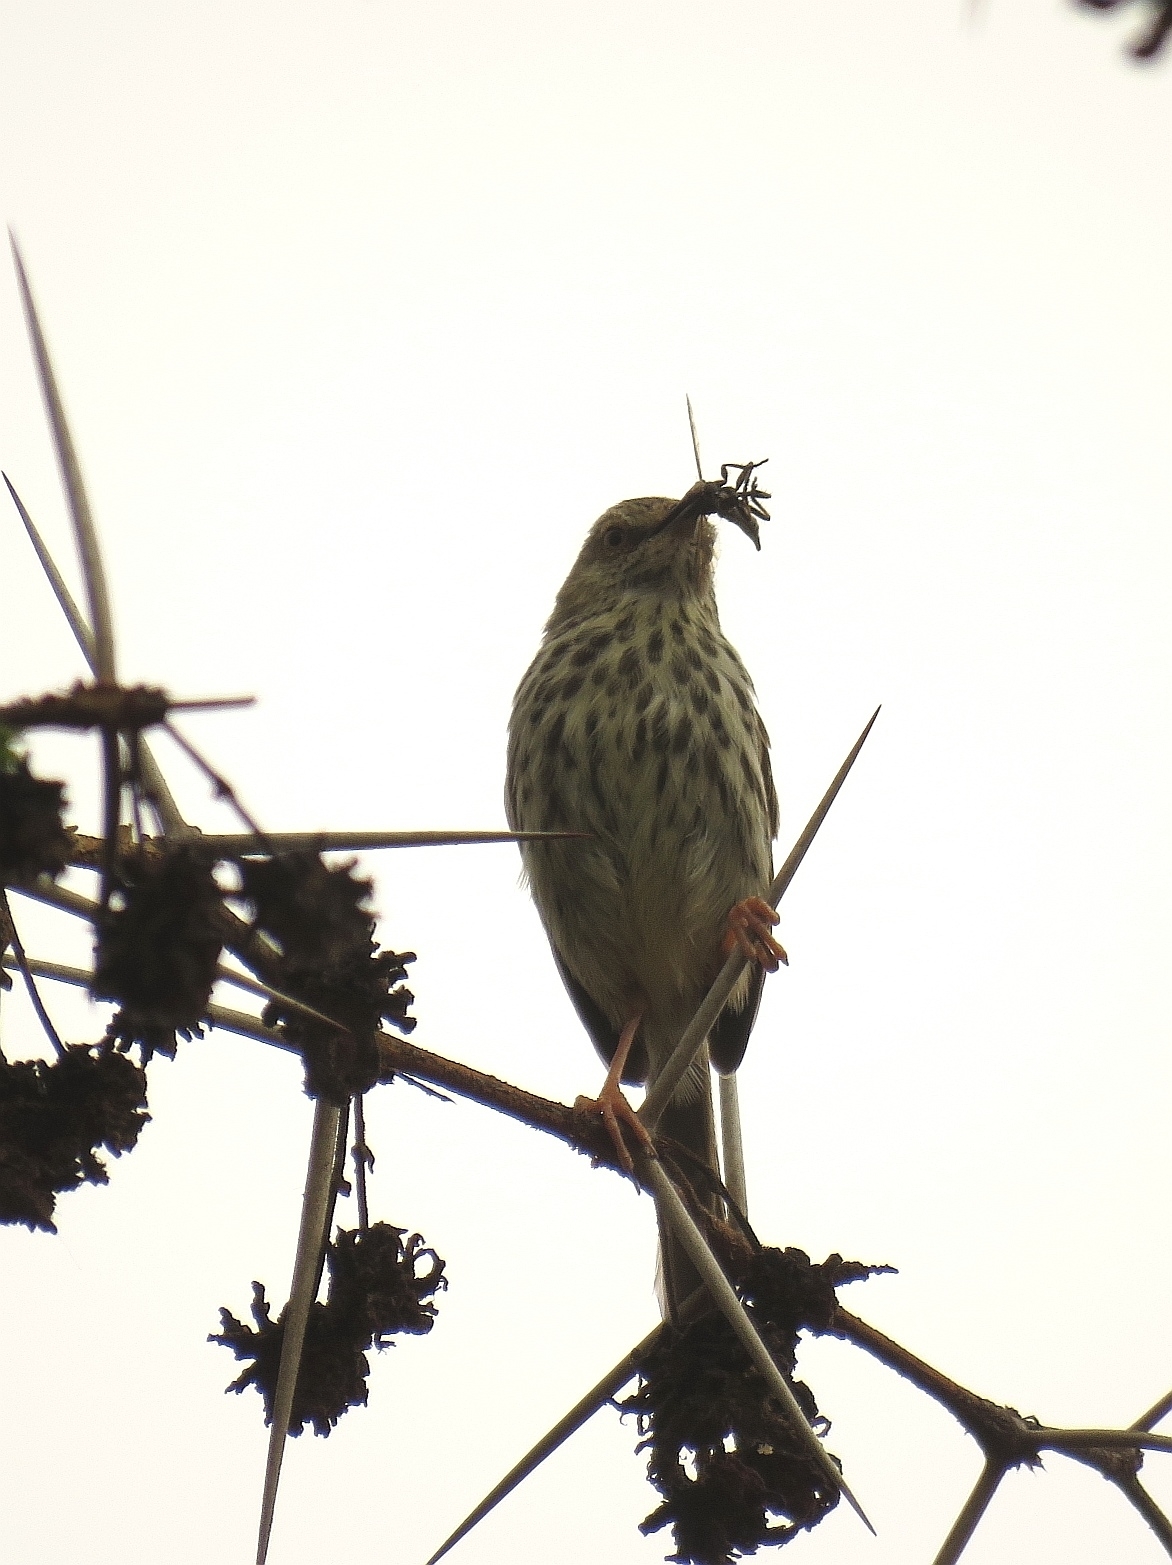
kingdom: Animalia
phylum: Chordata
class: Aves
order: Passeriformes
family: Cisticolidae
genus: Prinia
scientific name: Prinia maculosa
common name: Karoo prinia
